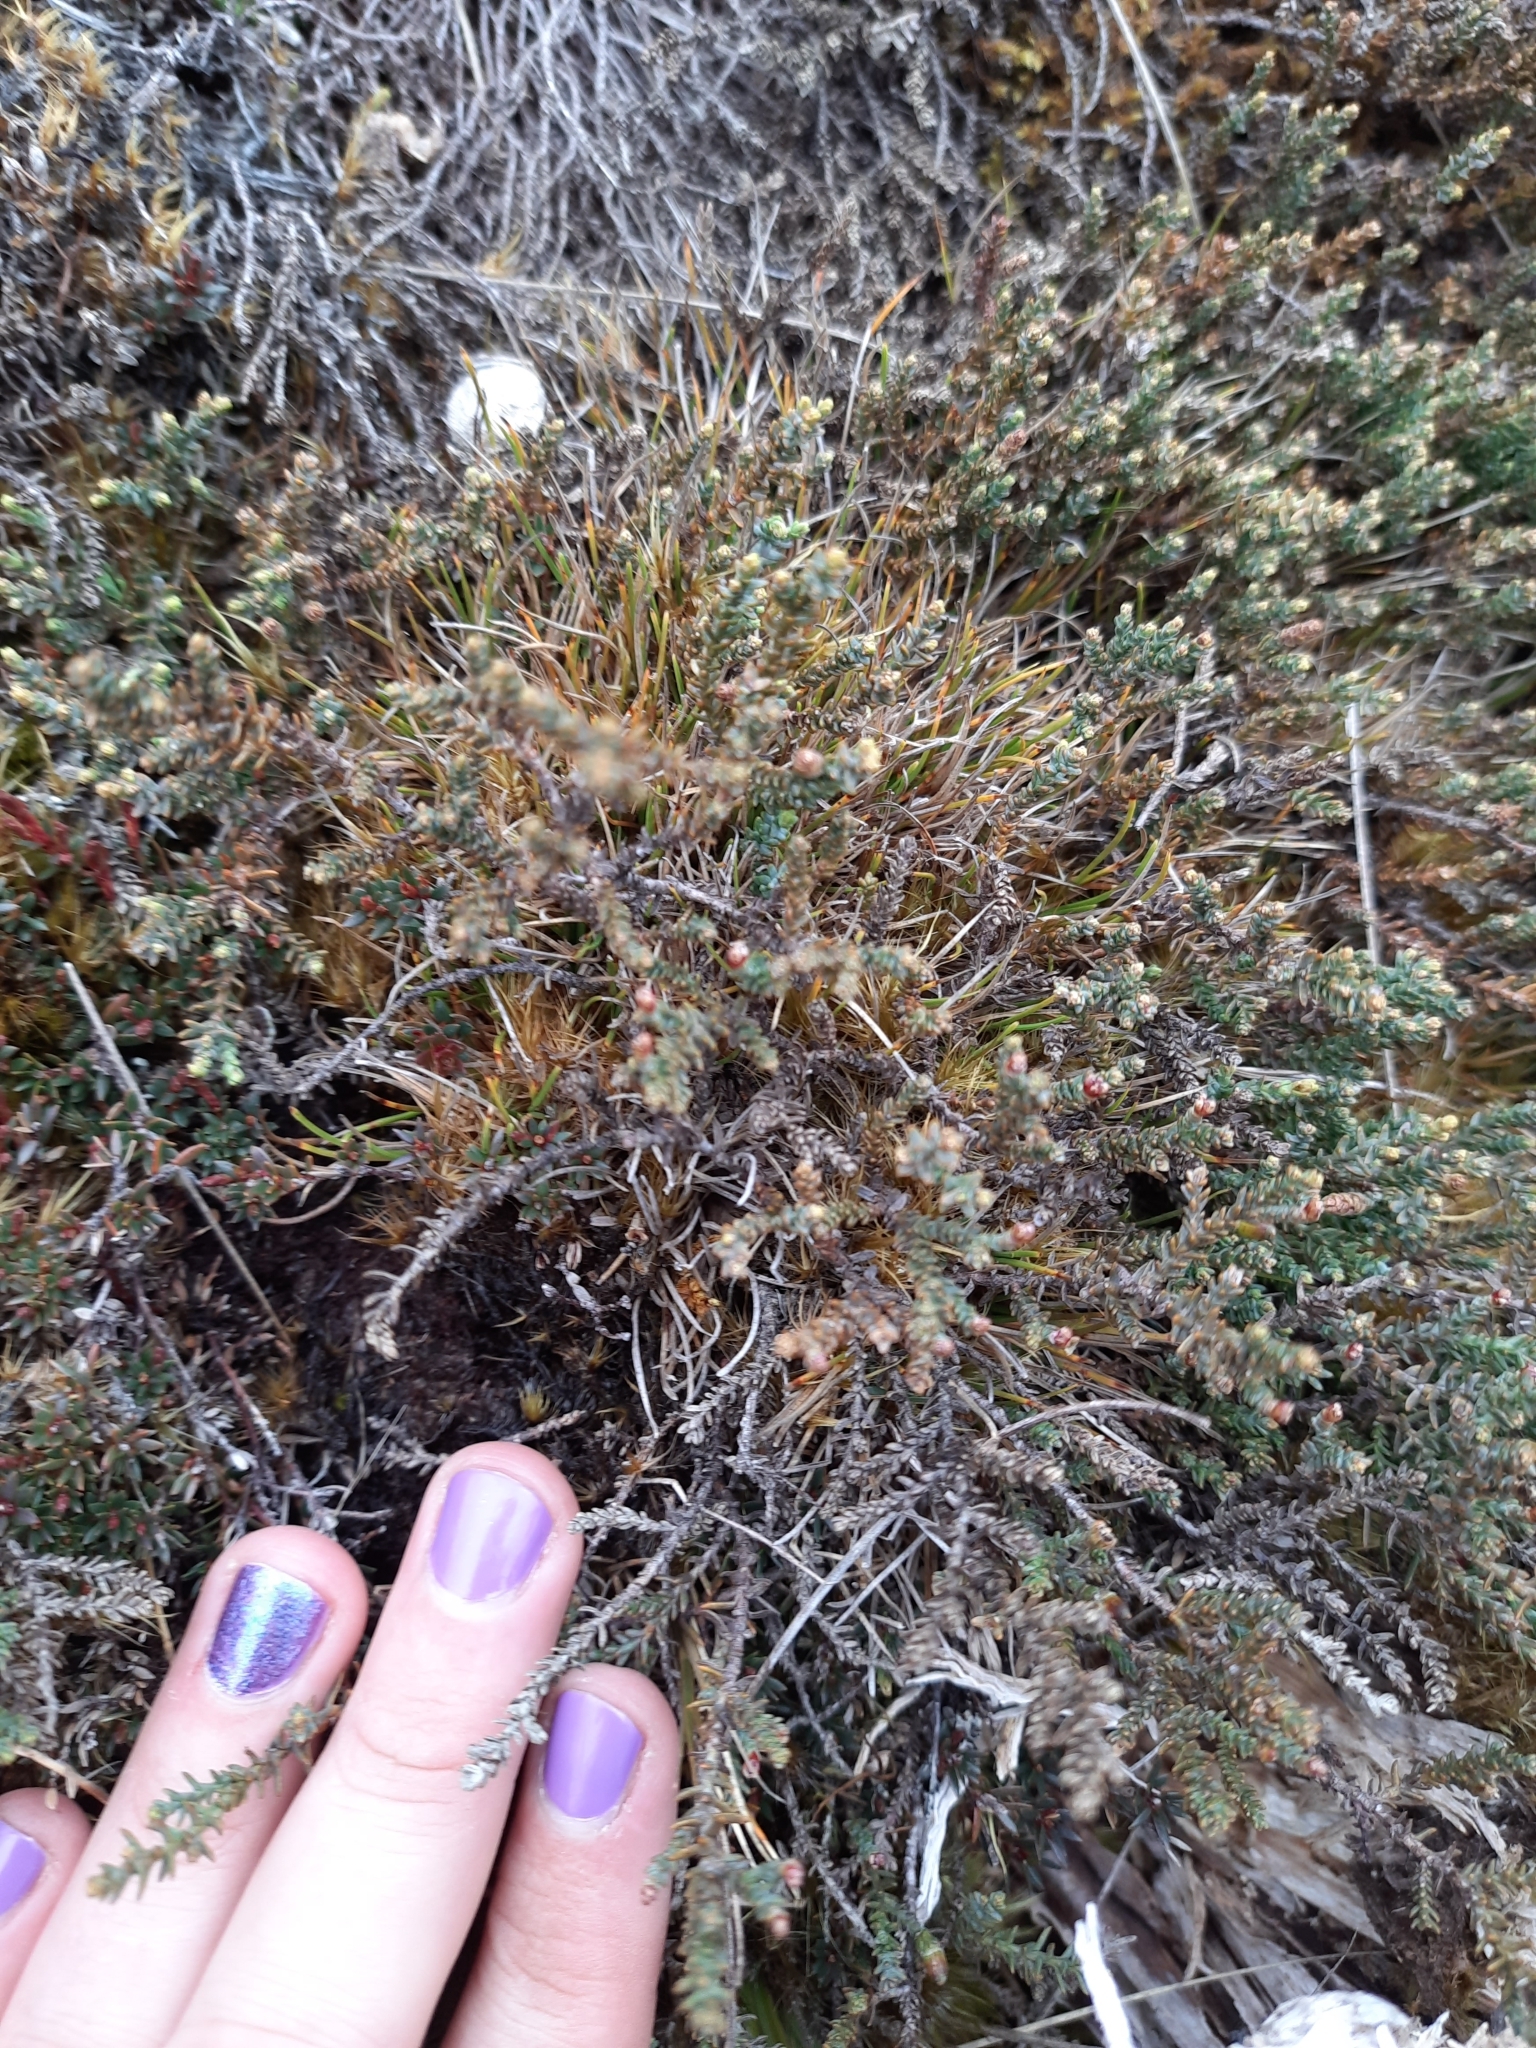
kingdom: Plantae
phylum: Tracheophyta
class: Pinopsida
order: Pinales
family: Podocarpaceae
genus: Lepidothamnus
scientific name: Lepidothamnus laxifolius
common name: Pygmy pine
